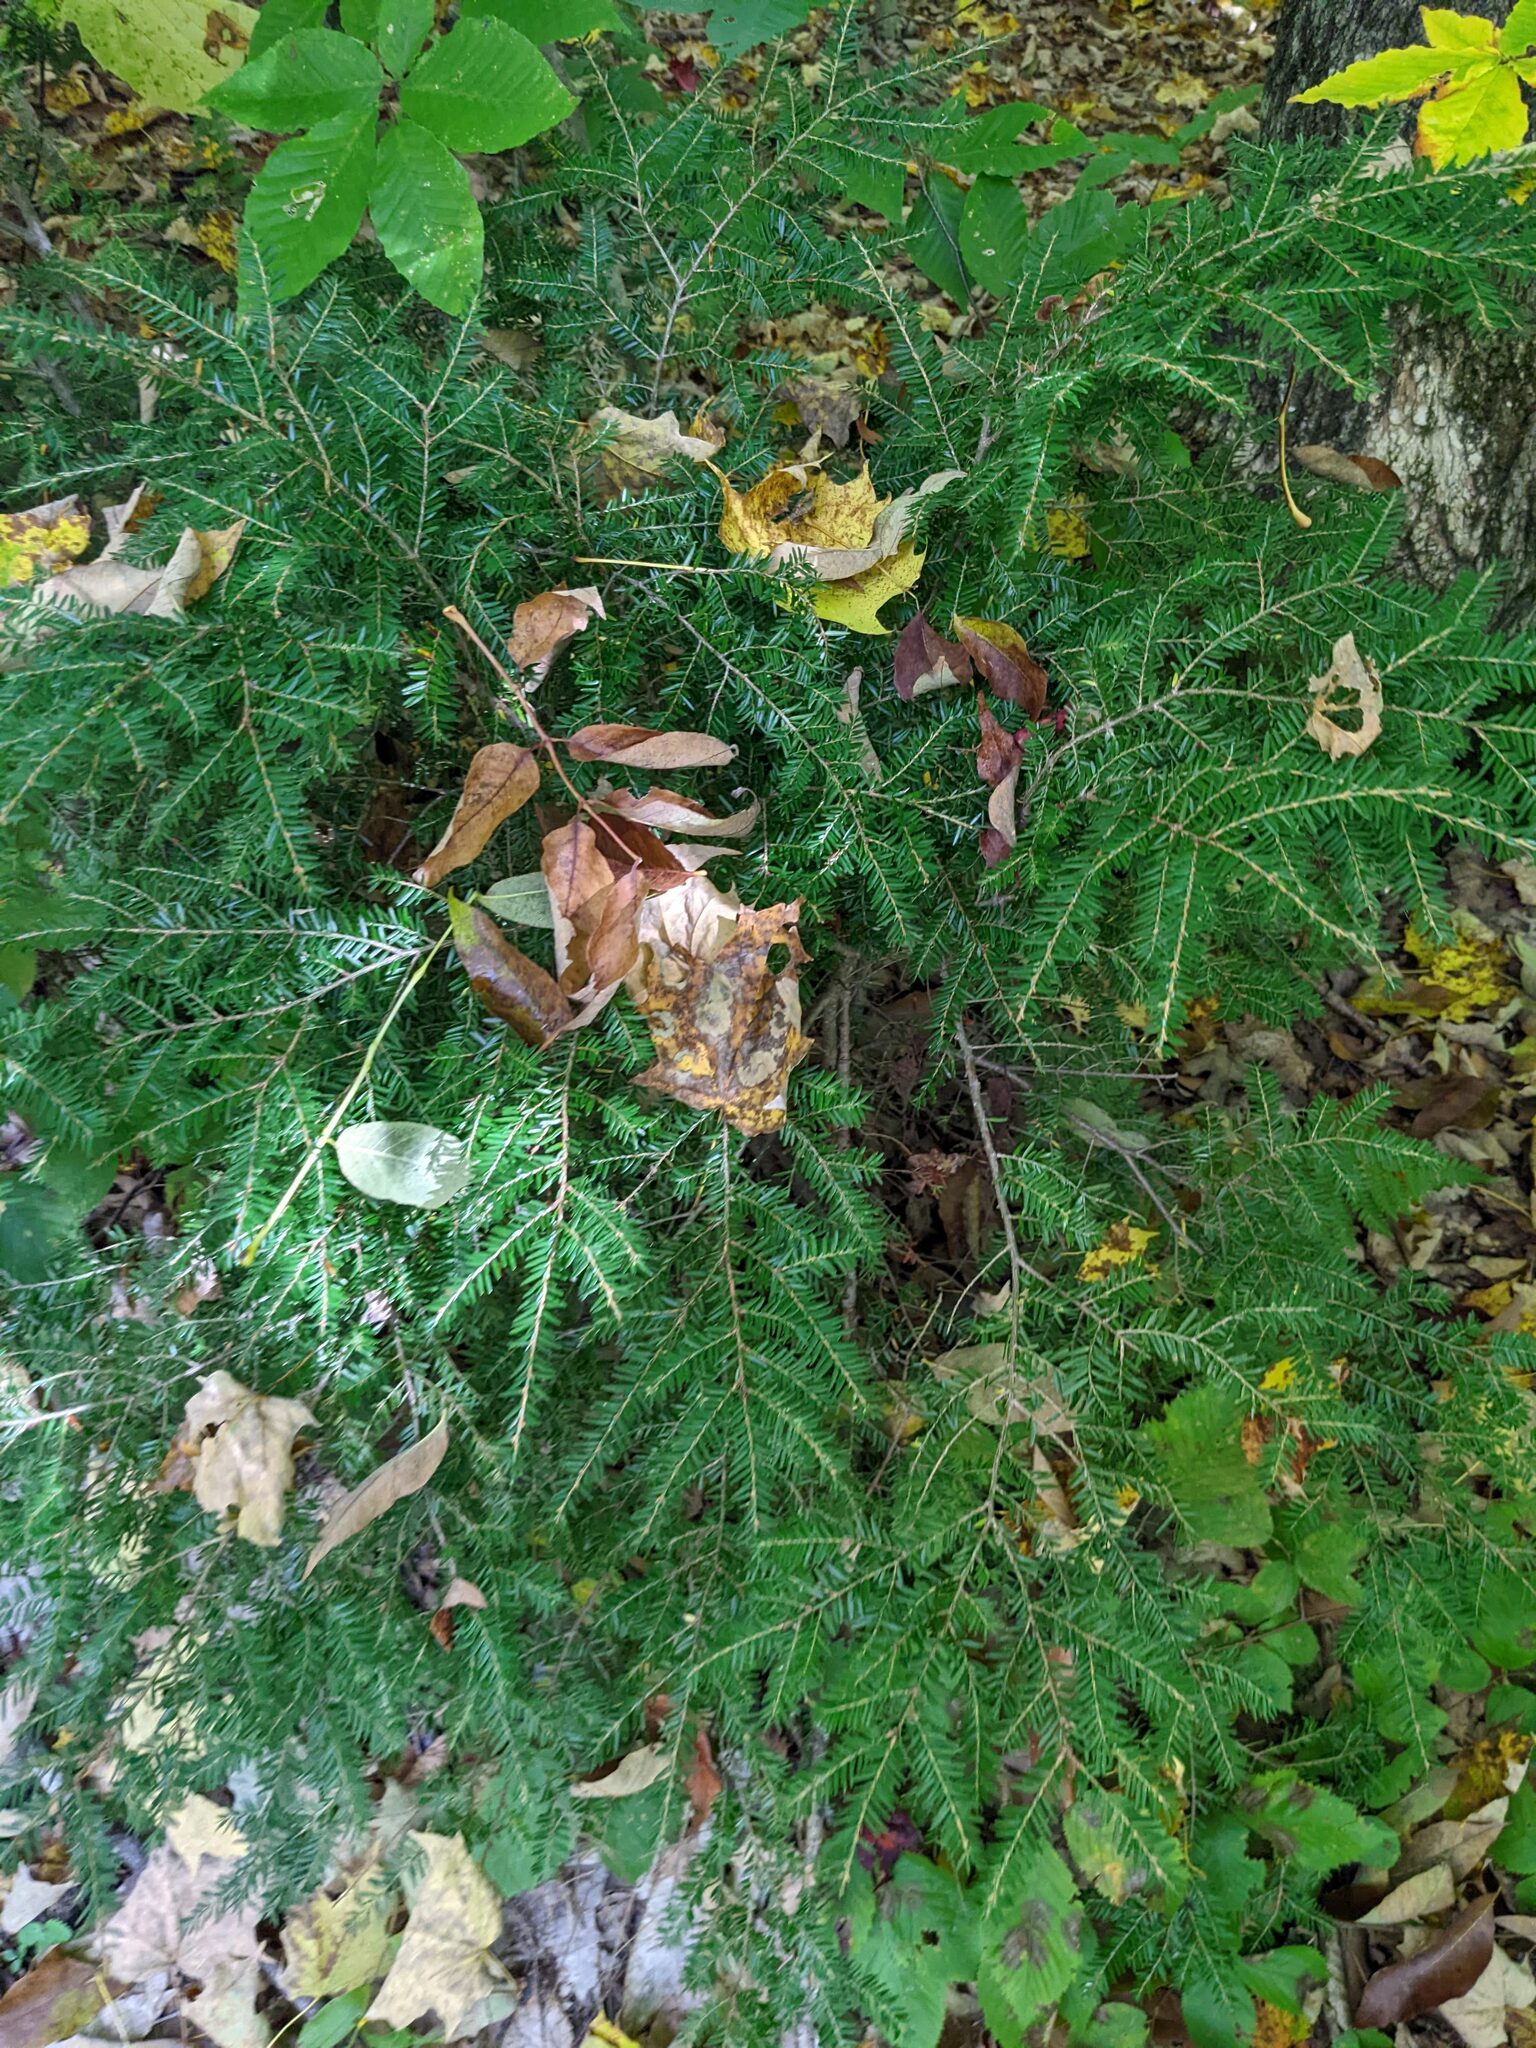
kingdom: Plantae
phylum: Tracheophyta
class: Pinopsida
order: Pinales
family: Pinaceae
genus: Tsuga
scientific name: Tsuga canadensis
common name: Eastern hemlock
